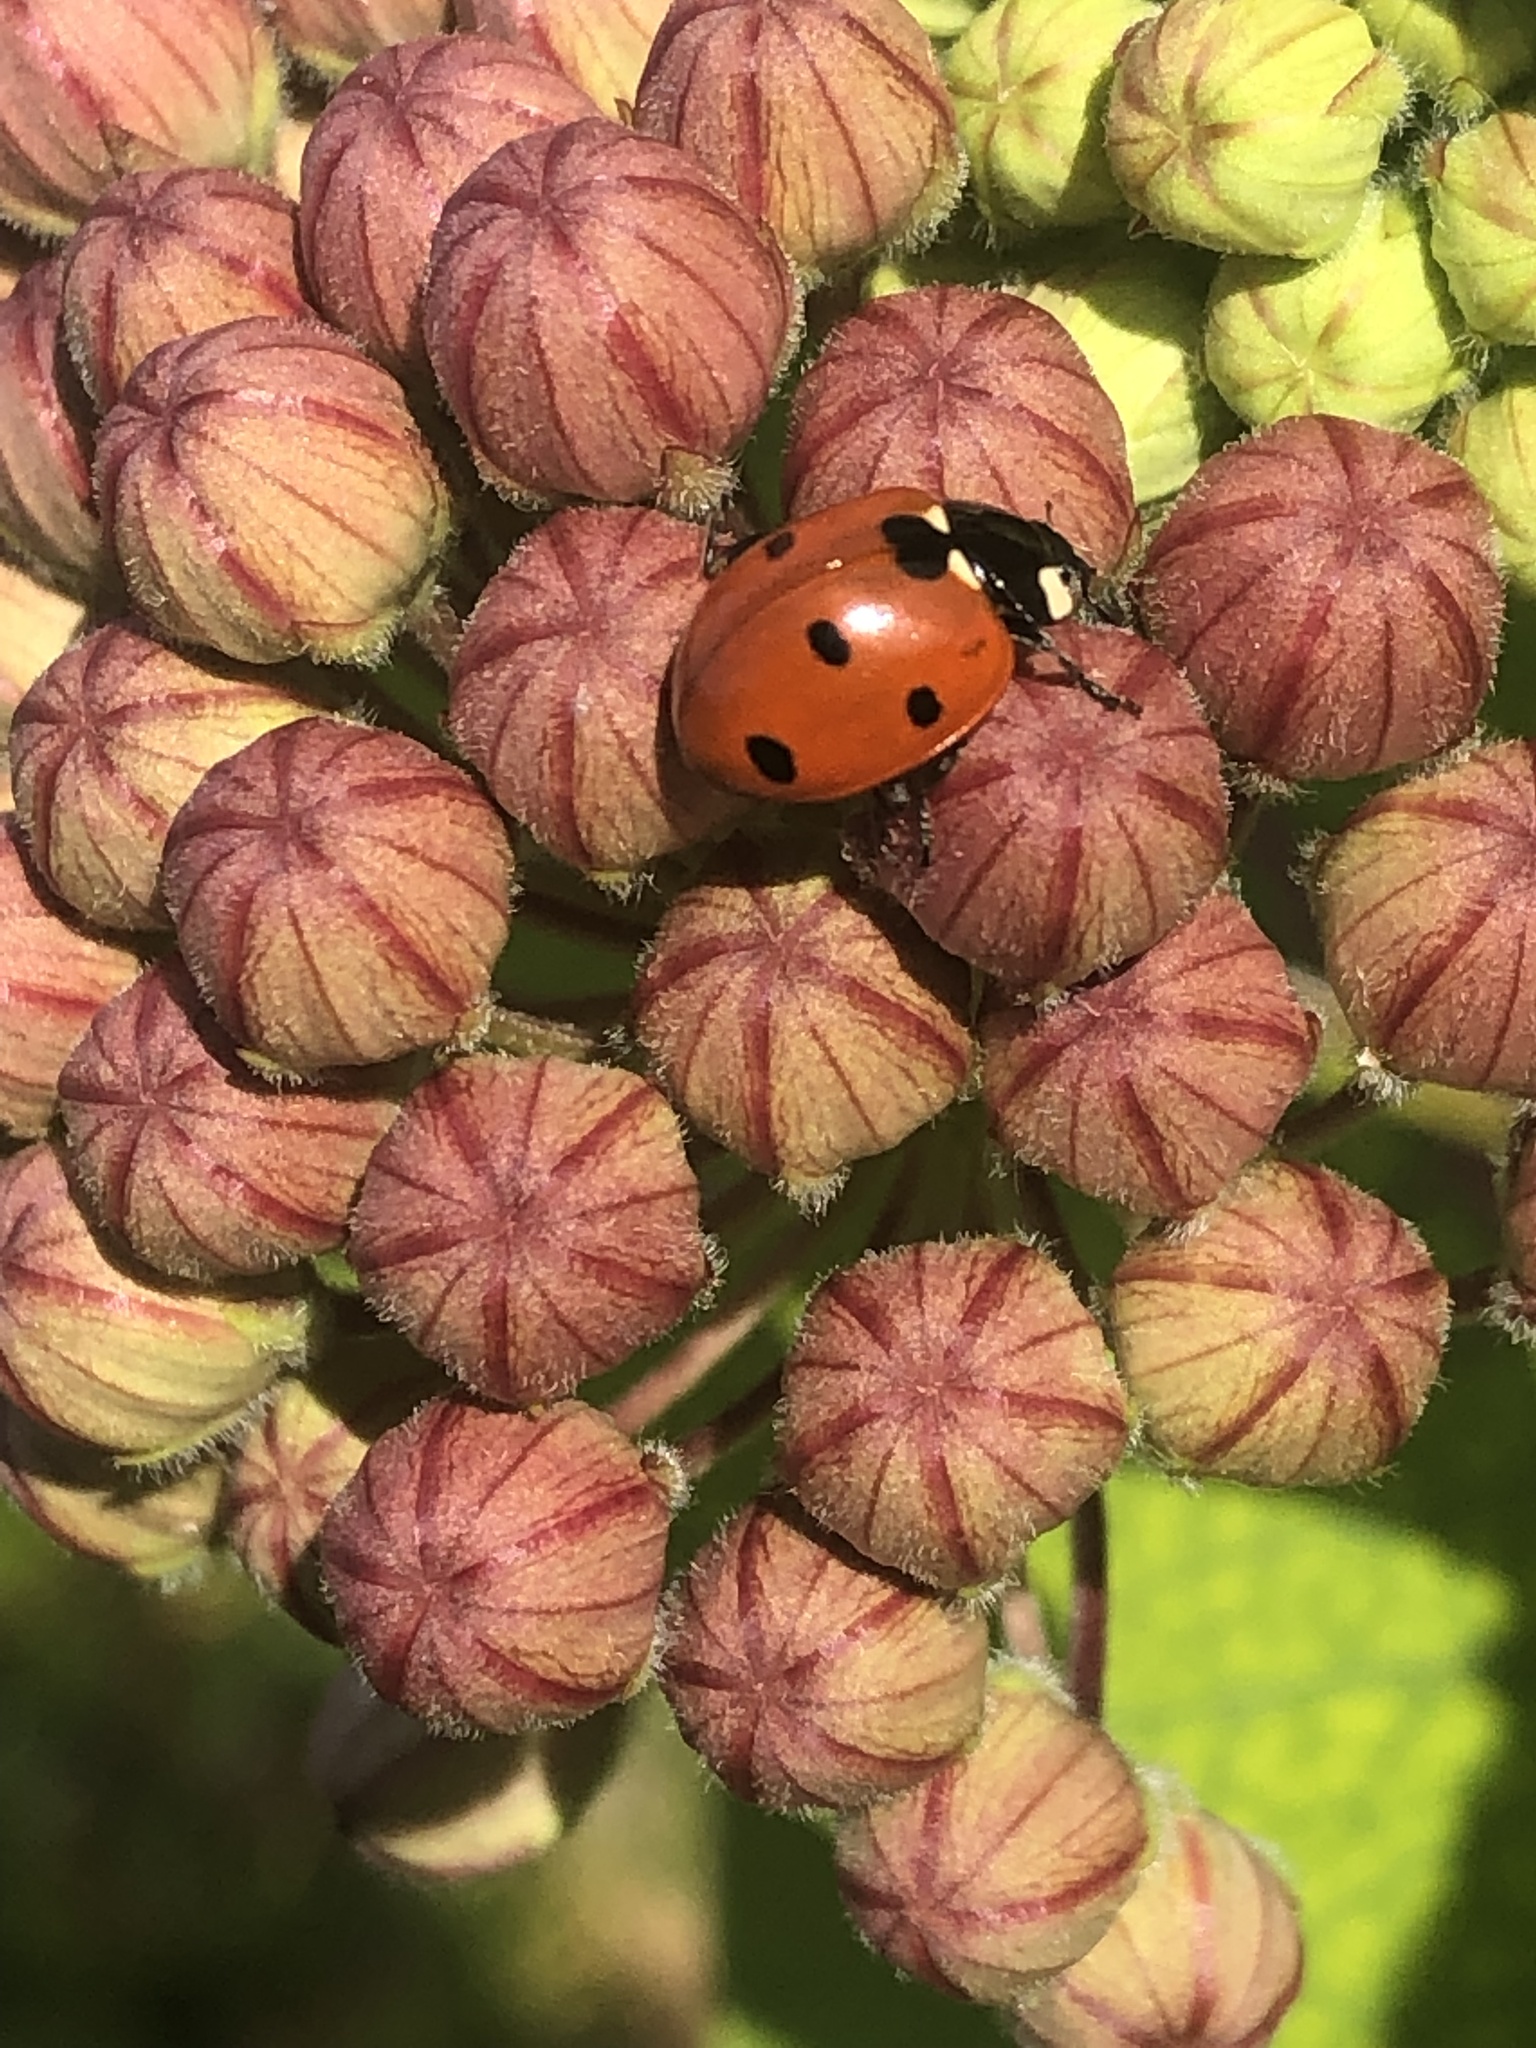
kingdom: Animalia
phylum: Arthropoda
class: Insecta
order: Coleoptera
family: Coccinellidae
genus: Coccinella
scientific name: Coccinella septempunctata
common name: Sevenspotted lady beetle
